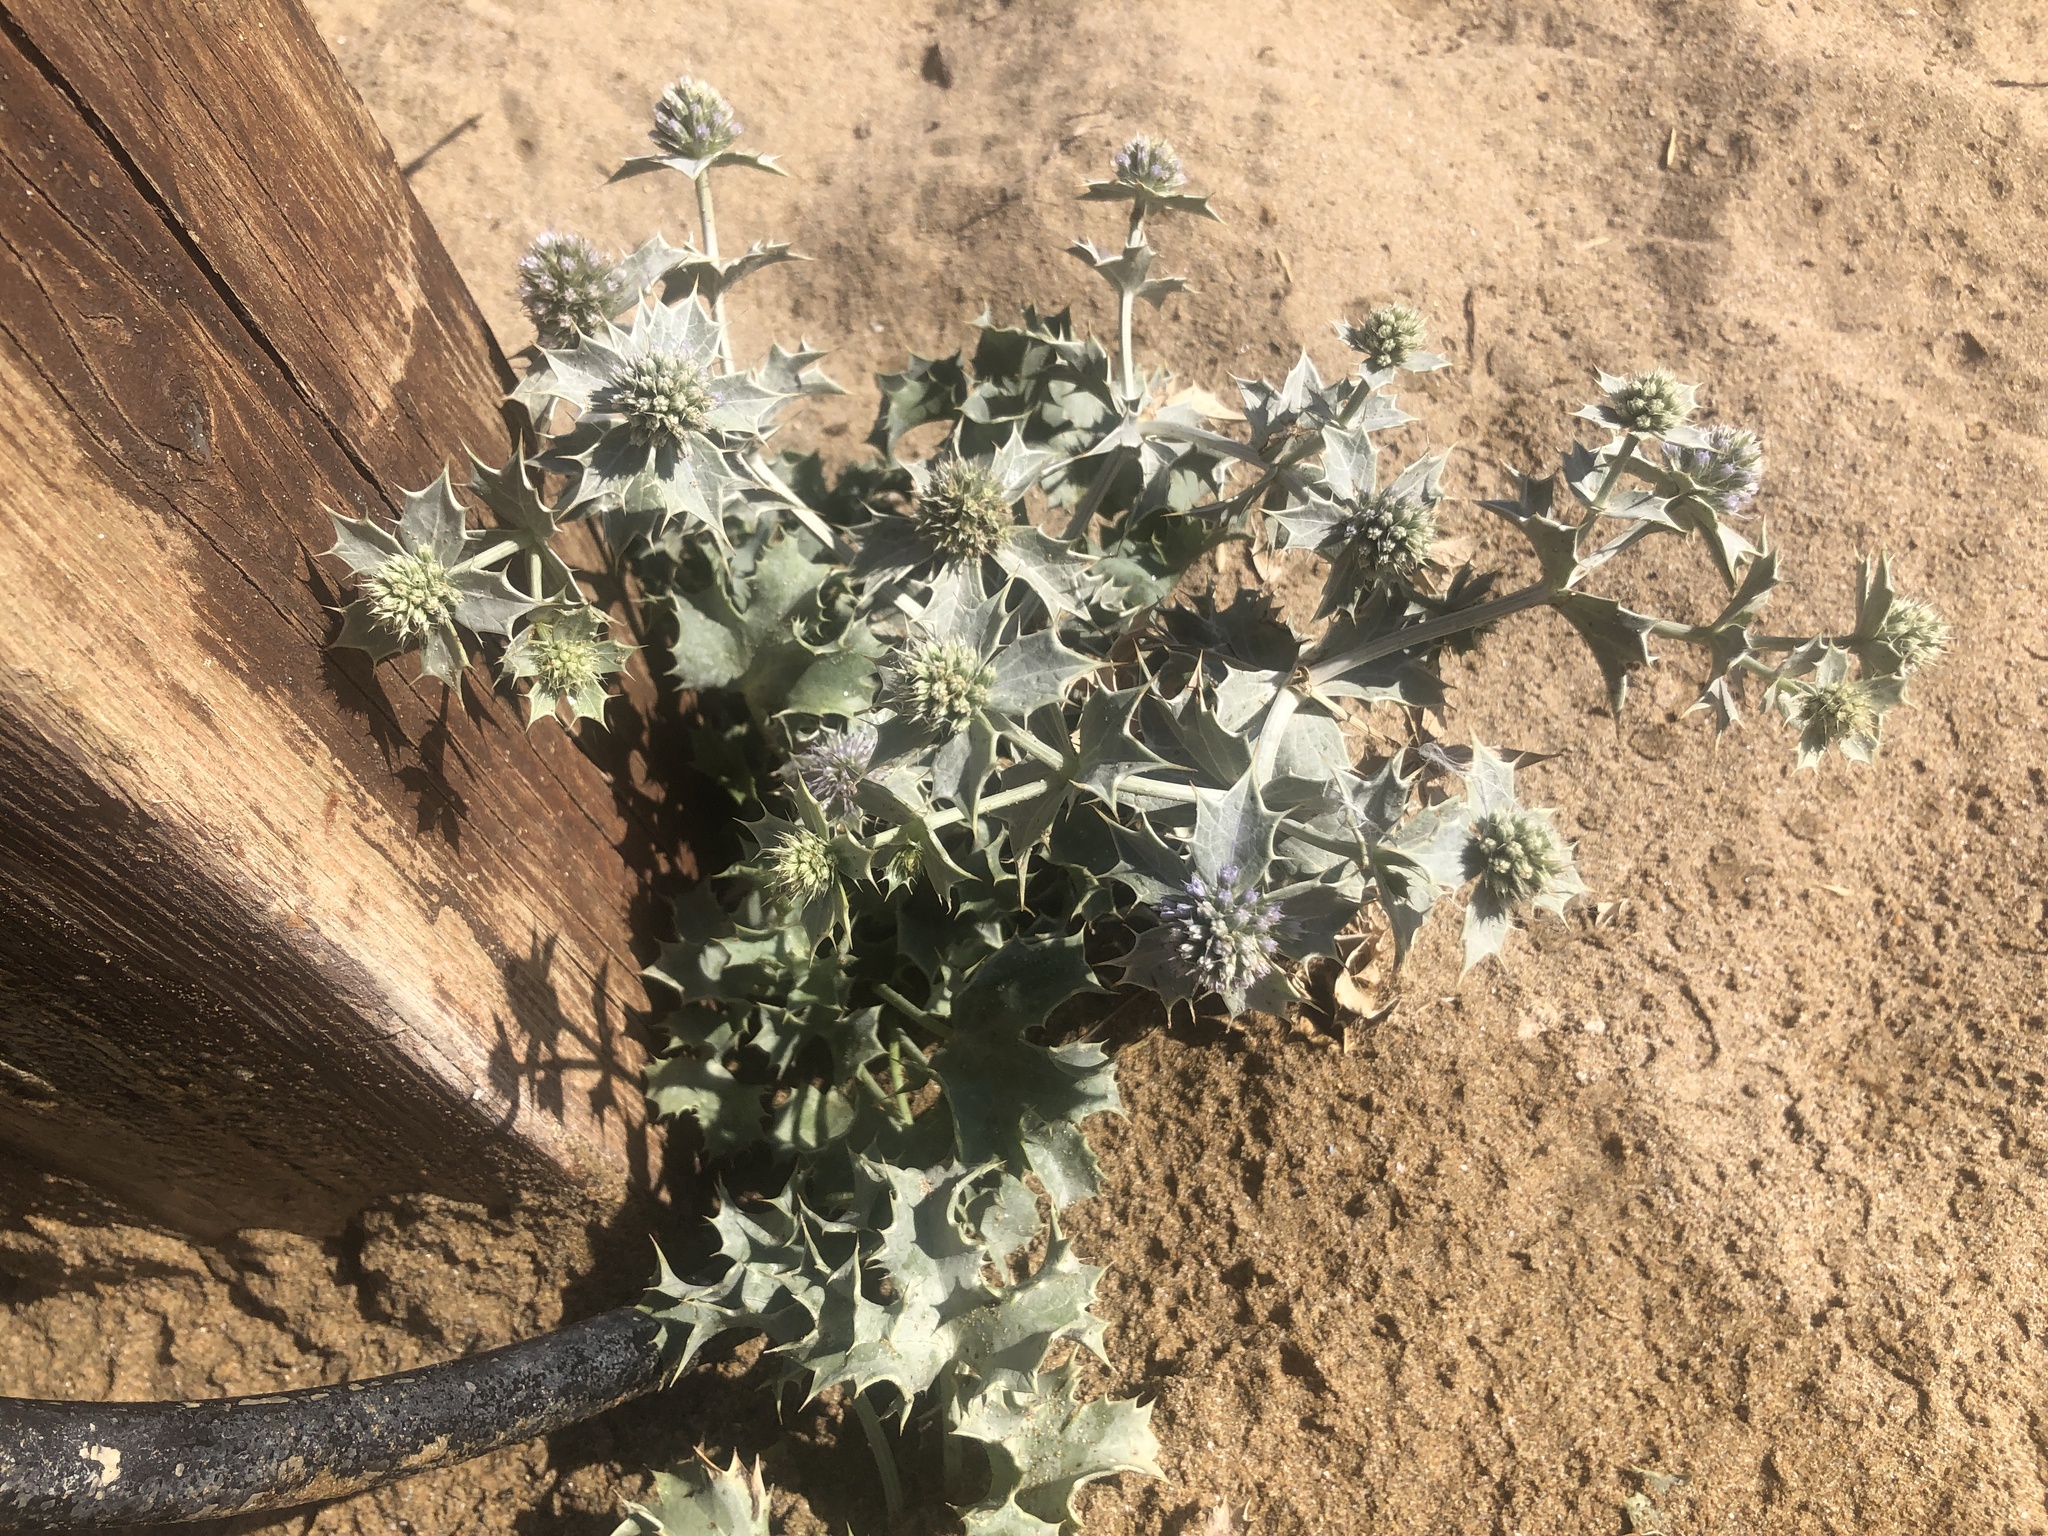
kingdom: Plantae
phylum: Tracheophyta
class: Magnoliopsida
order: Apiales
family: Apiaceae
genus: Eryngium
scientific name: Eryngium maritimum
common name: Sea-holly
